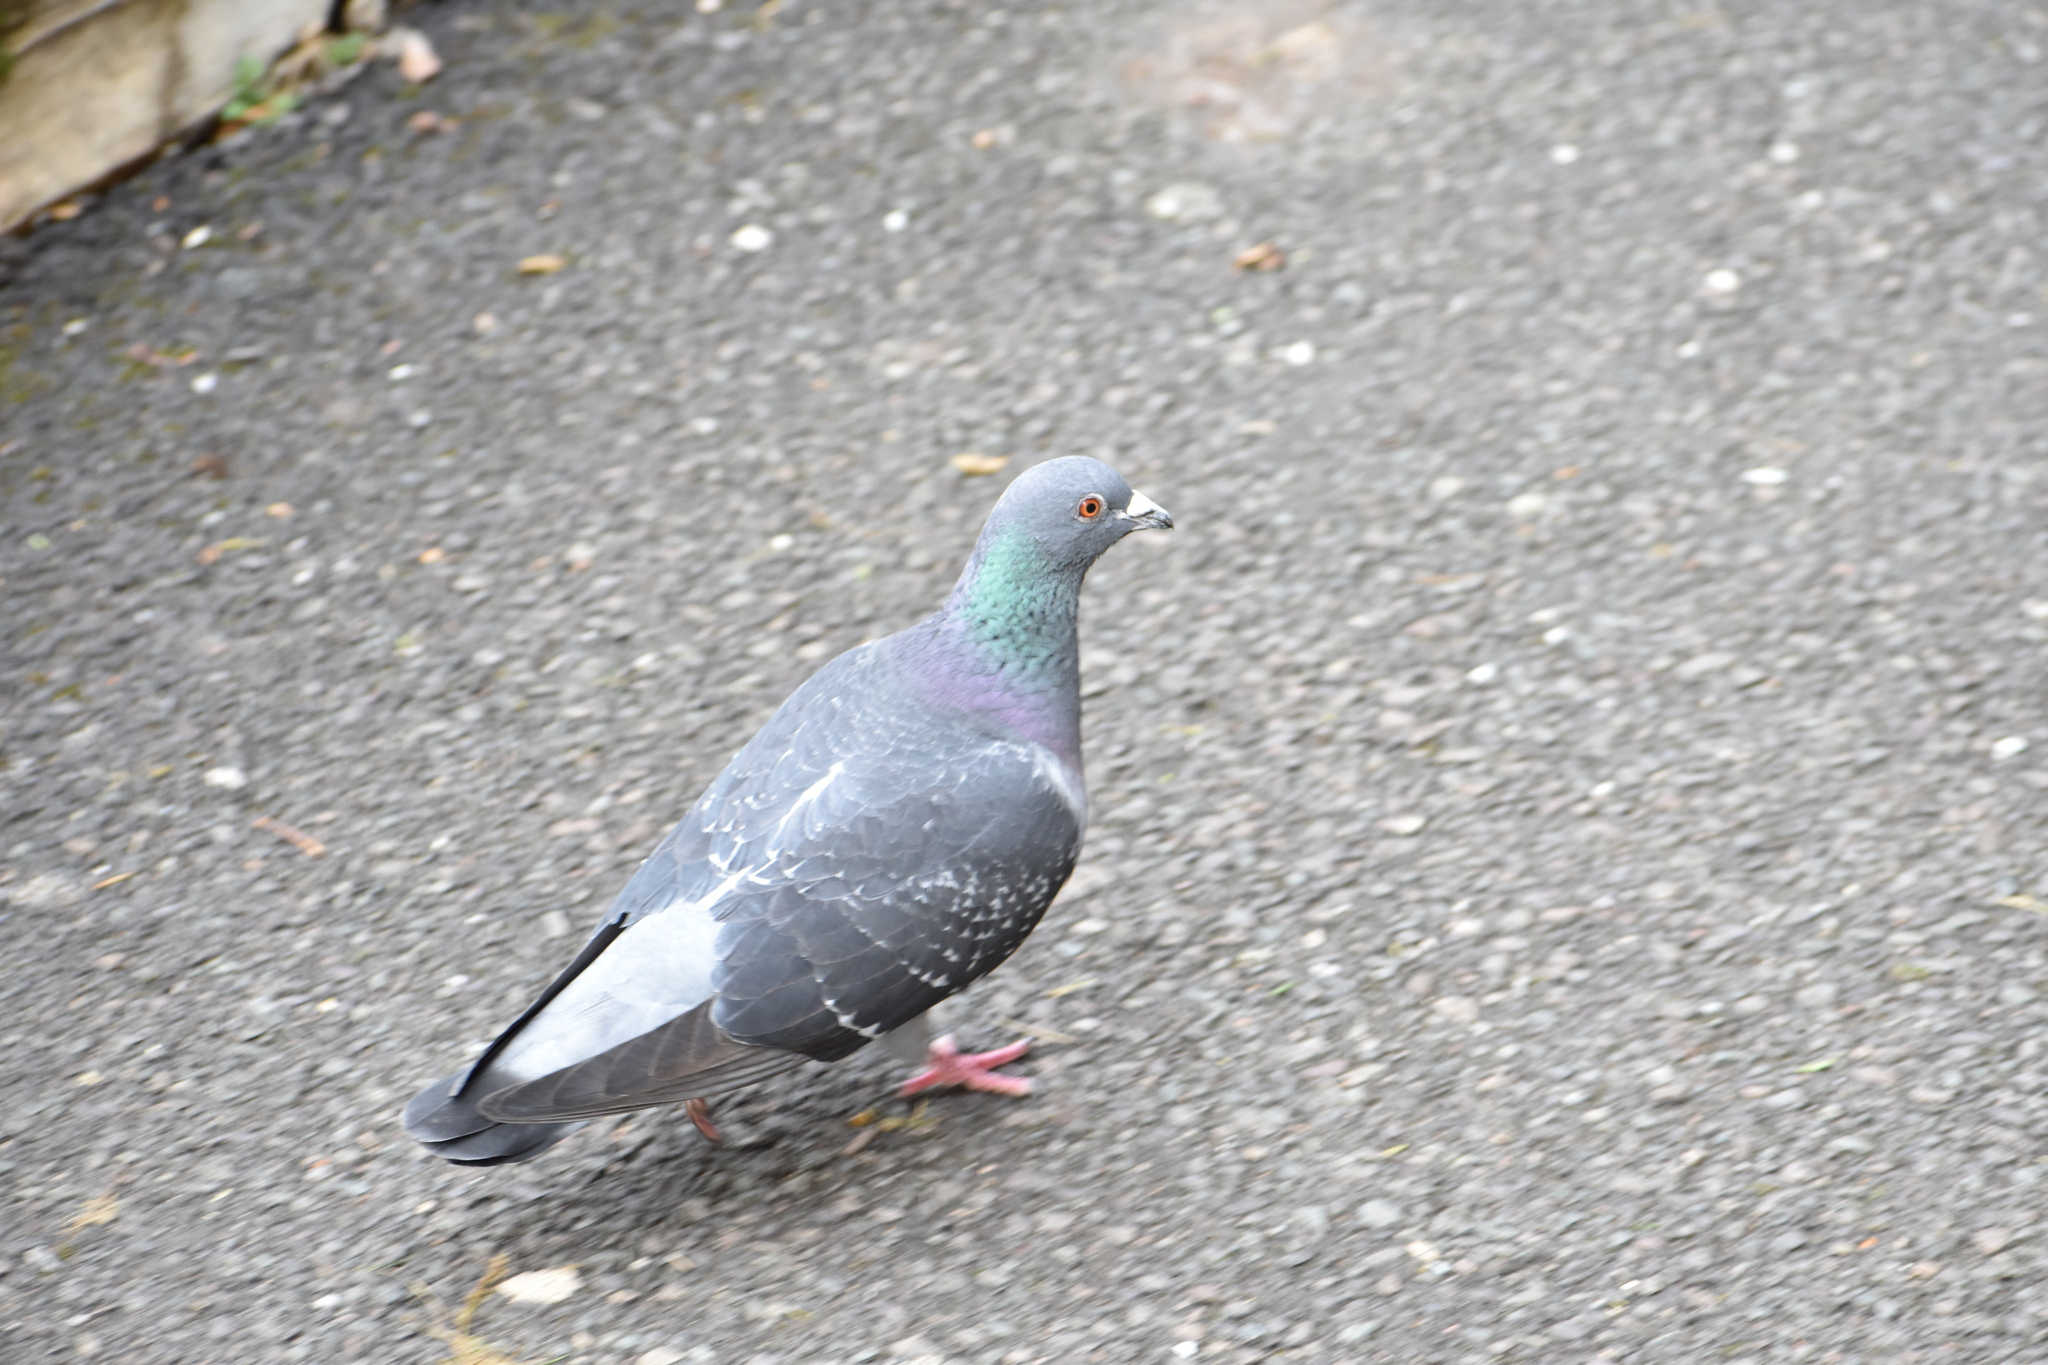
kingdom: Animalia
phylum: Chordata
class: Aves
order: Columbiformes
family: Columbidae
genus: Columba
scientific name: Columba livia
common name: Rock pigeon
